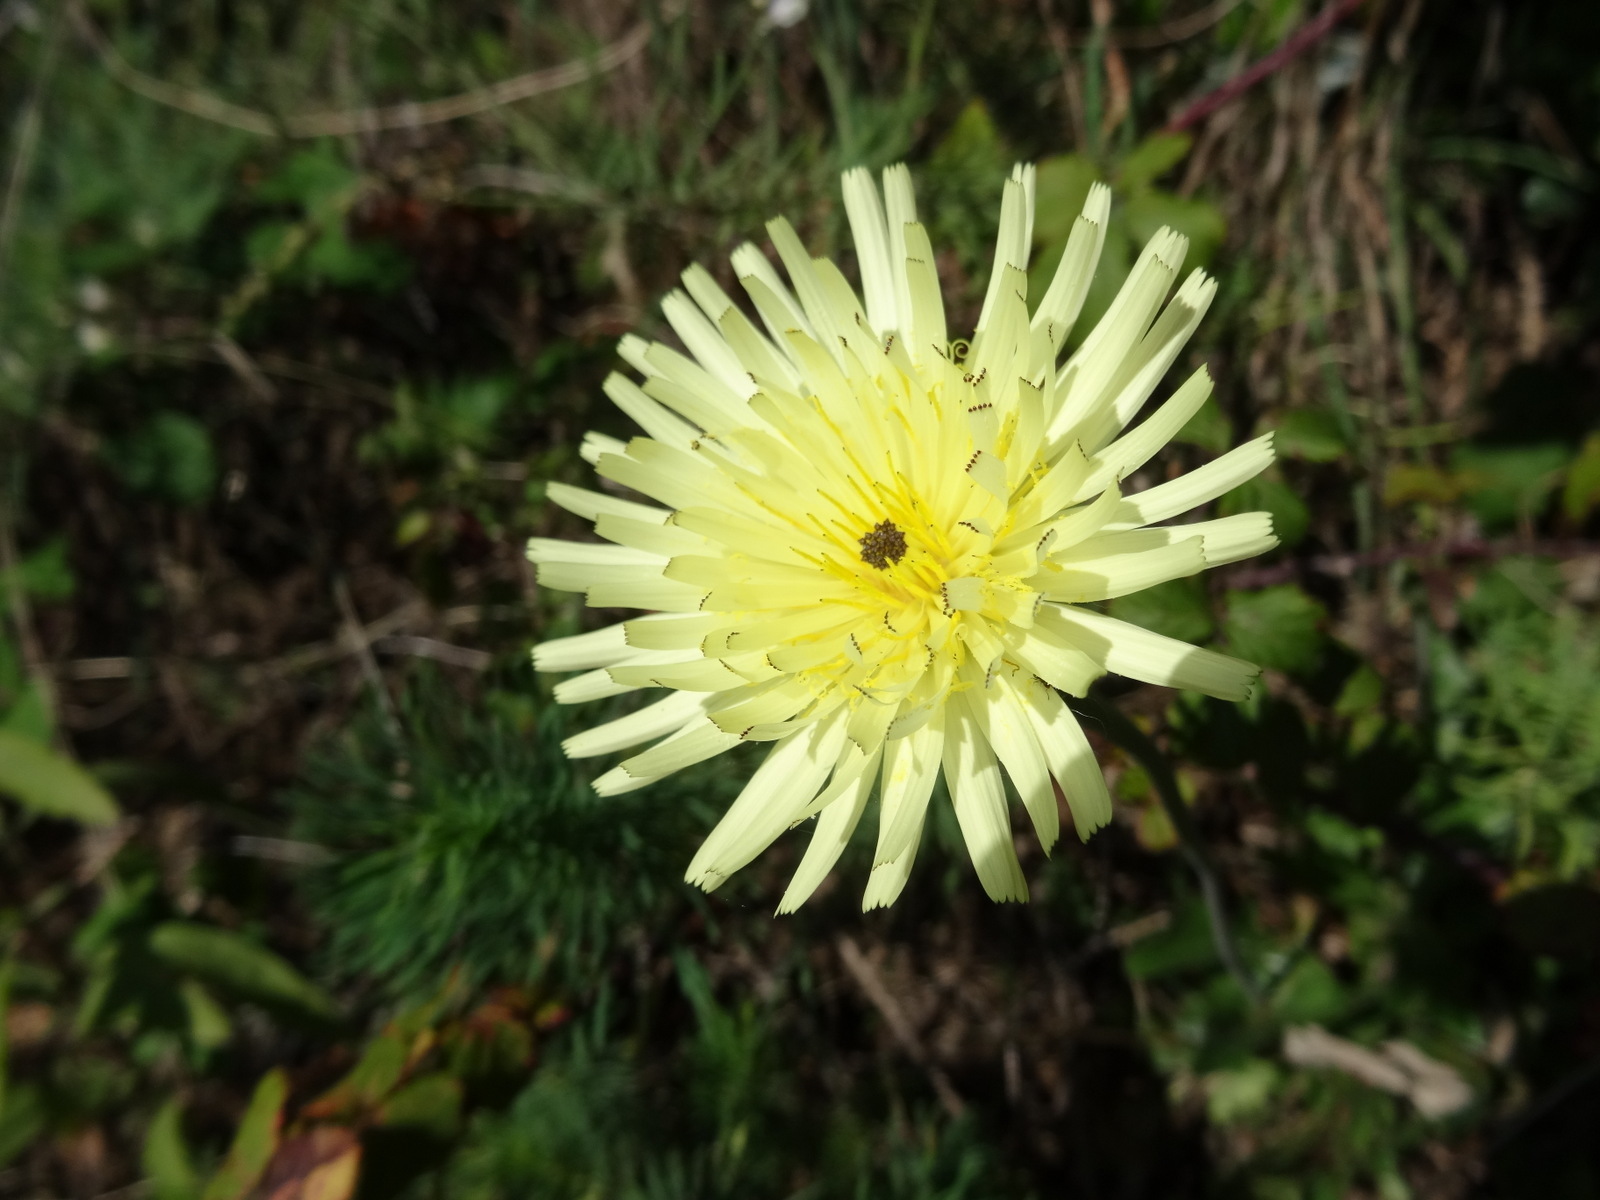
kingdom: Plantae
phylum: Tracheophyta
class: Magnoliopsida
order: Asterales
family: Asteraceae
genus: Urospermum
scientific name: Urospermum dalechampii
